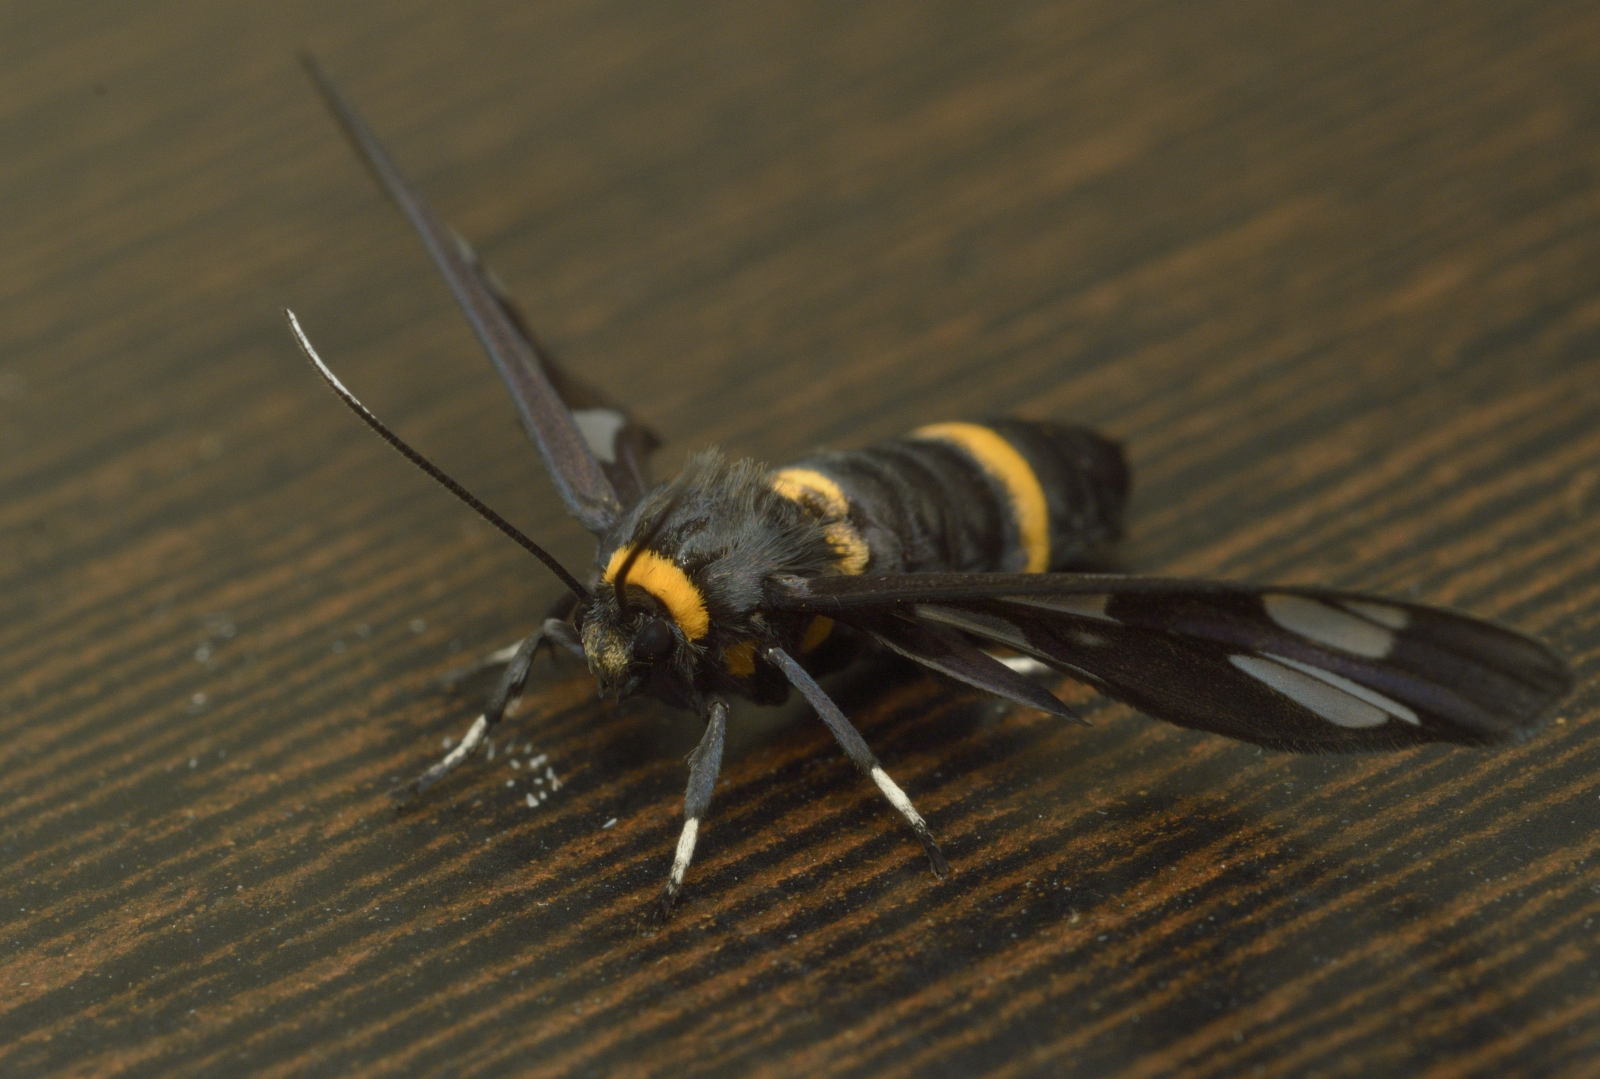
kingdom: Animalia
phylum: Arthropoda
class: Insecta
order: Lepidoptera
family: Erebidae
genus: Syntomoides
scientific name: Syntomoides imaon
